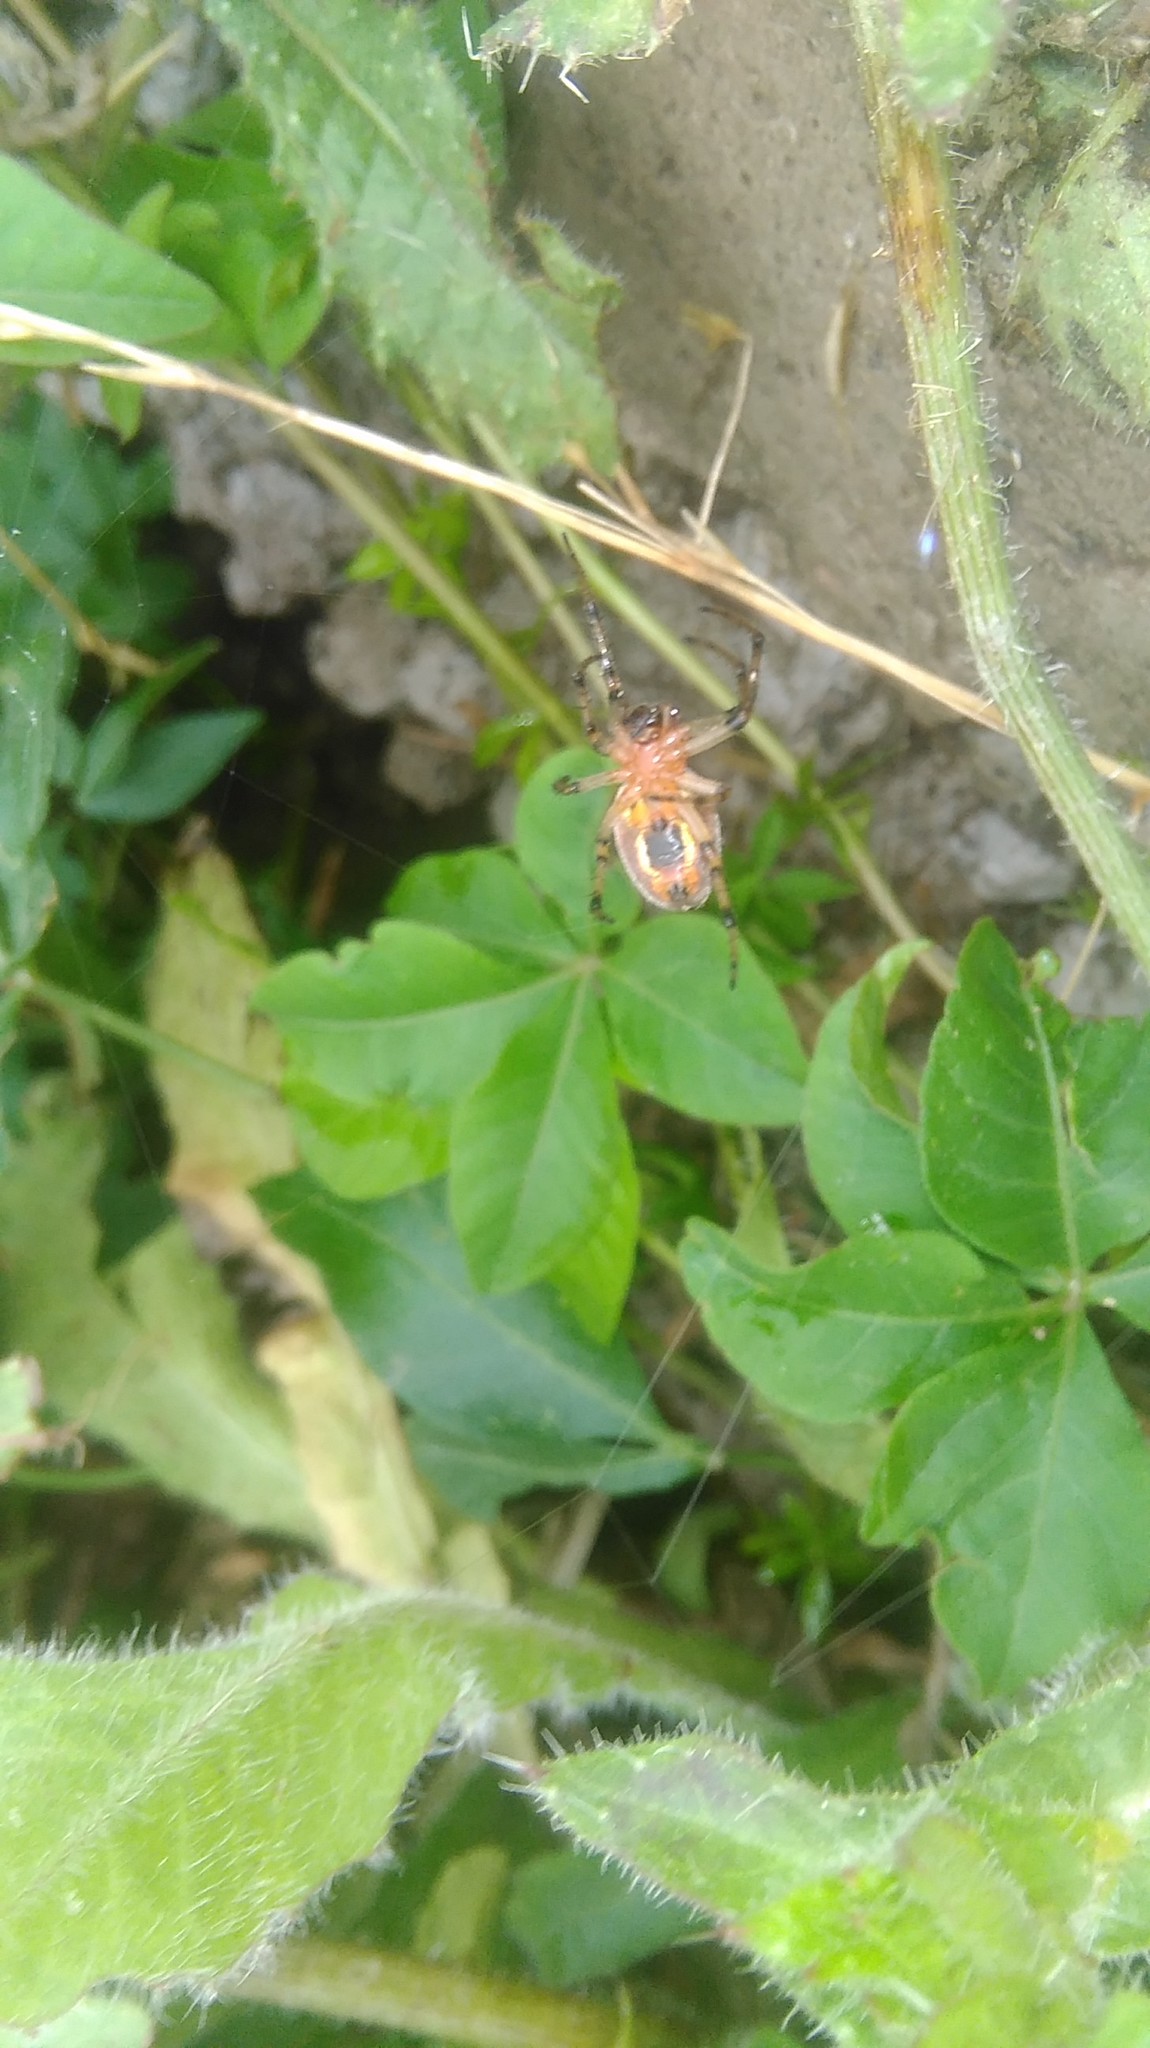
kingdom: Animalia
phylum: Arthropoda
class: Arachnida
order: Araneae
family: Araneidae
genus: Alpaida
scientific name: Alpaida veniliae
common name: Orb weavers
